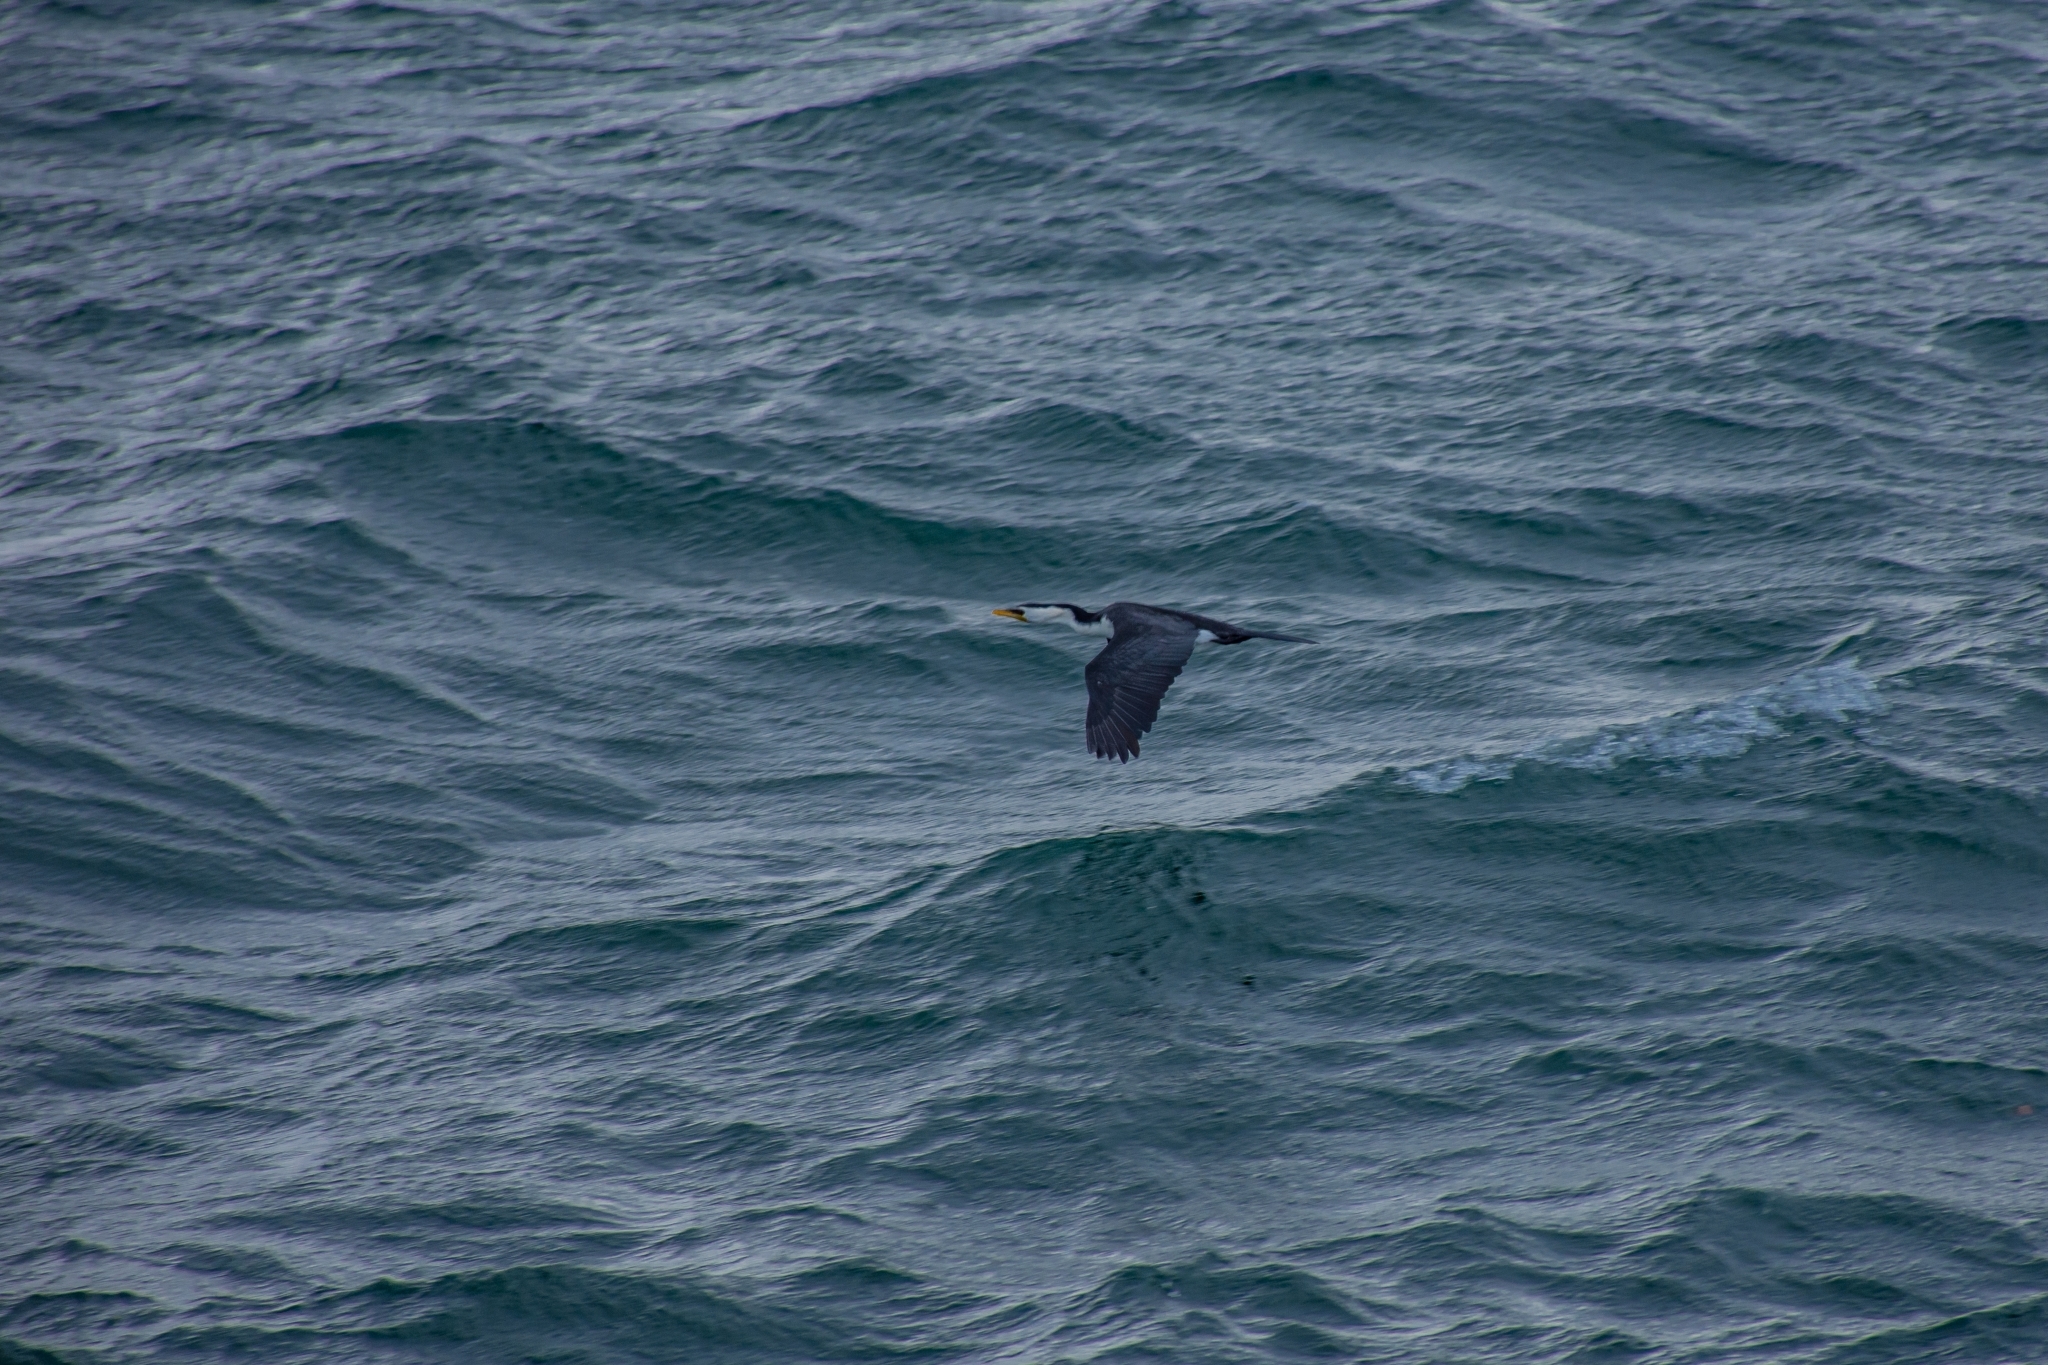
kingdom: Animalia
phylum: Chordata
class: Aves
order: Suliformes
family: Phalacrocoracidae
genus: Microcarbo
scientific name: Microcarbo melanoleucos
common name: Little pied cormorant
